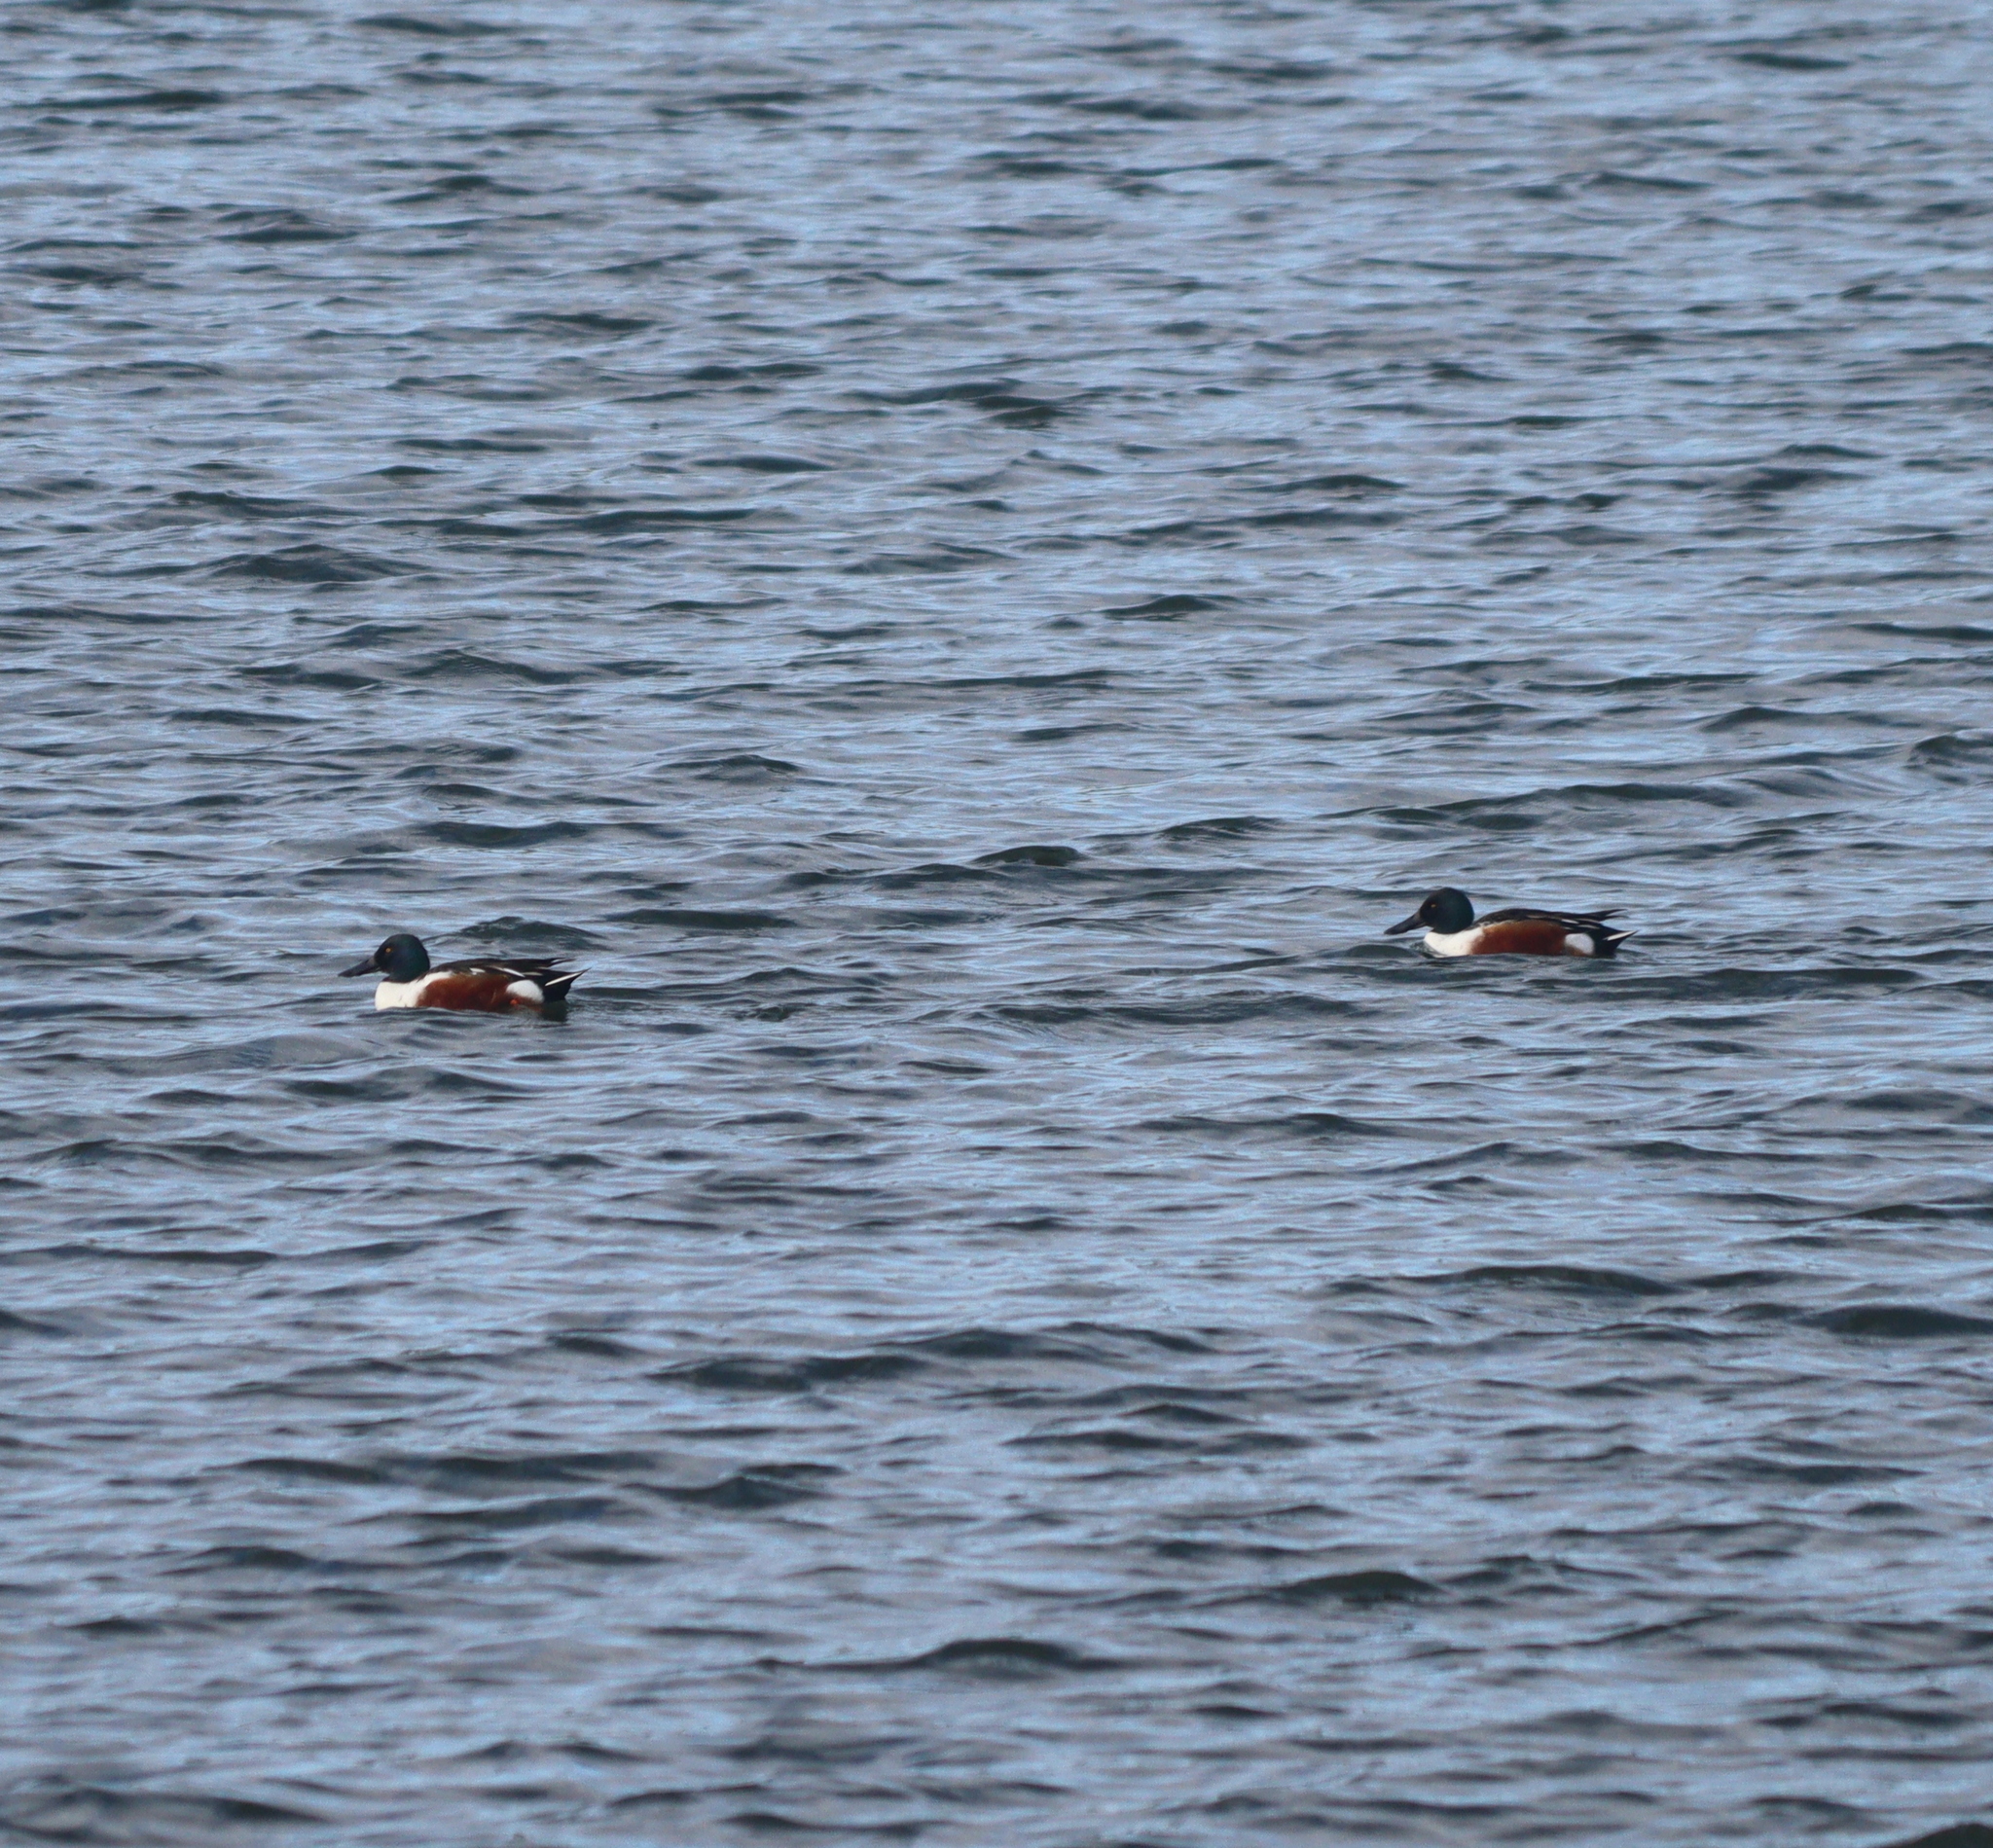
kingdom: Animalia
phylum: Chordata
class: Aves
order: Anseriformes
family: Anatidae
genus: Spatula
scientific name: Spatula clypeata
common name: Northern shoveler
